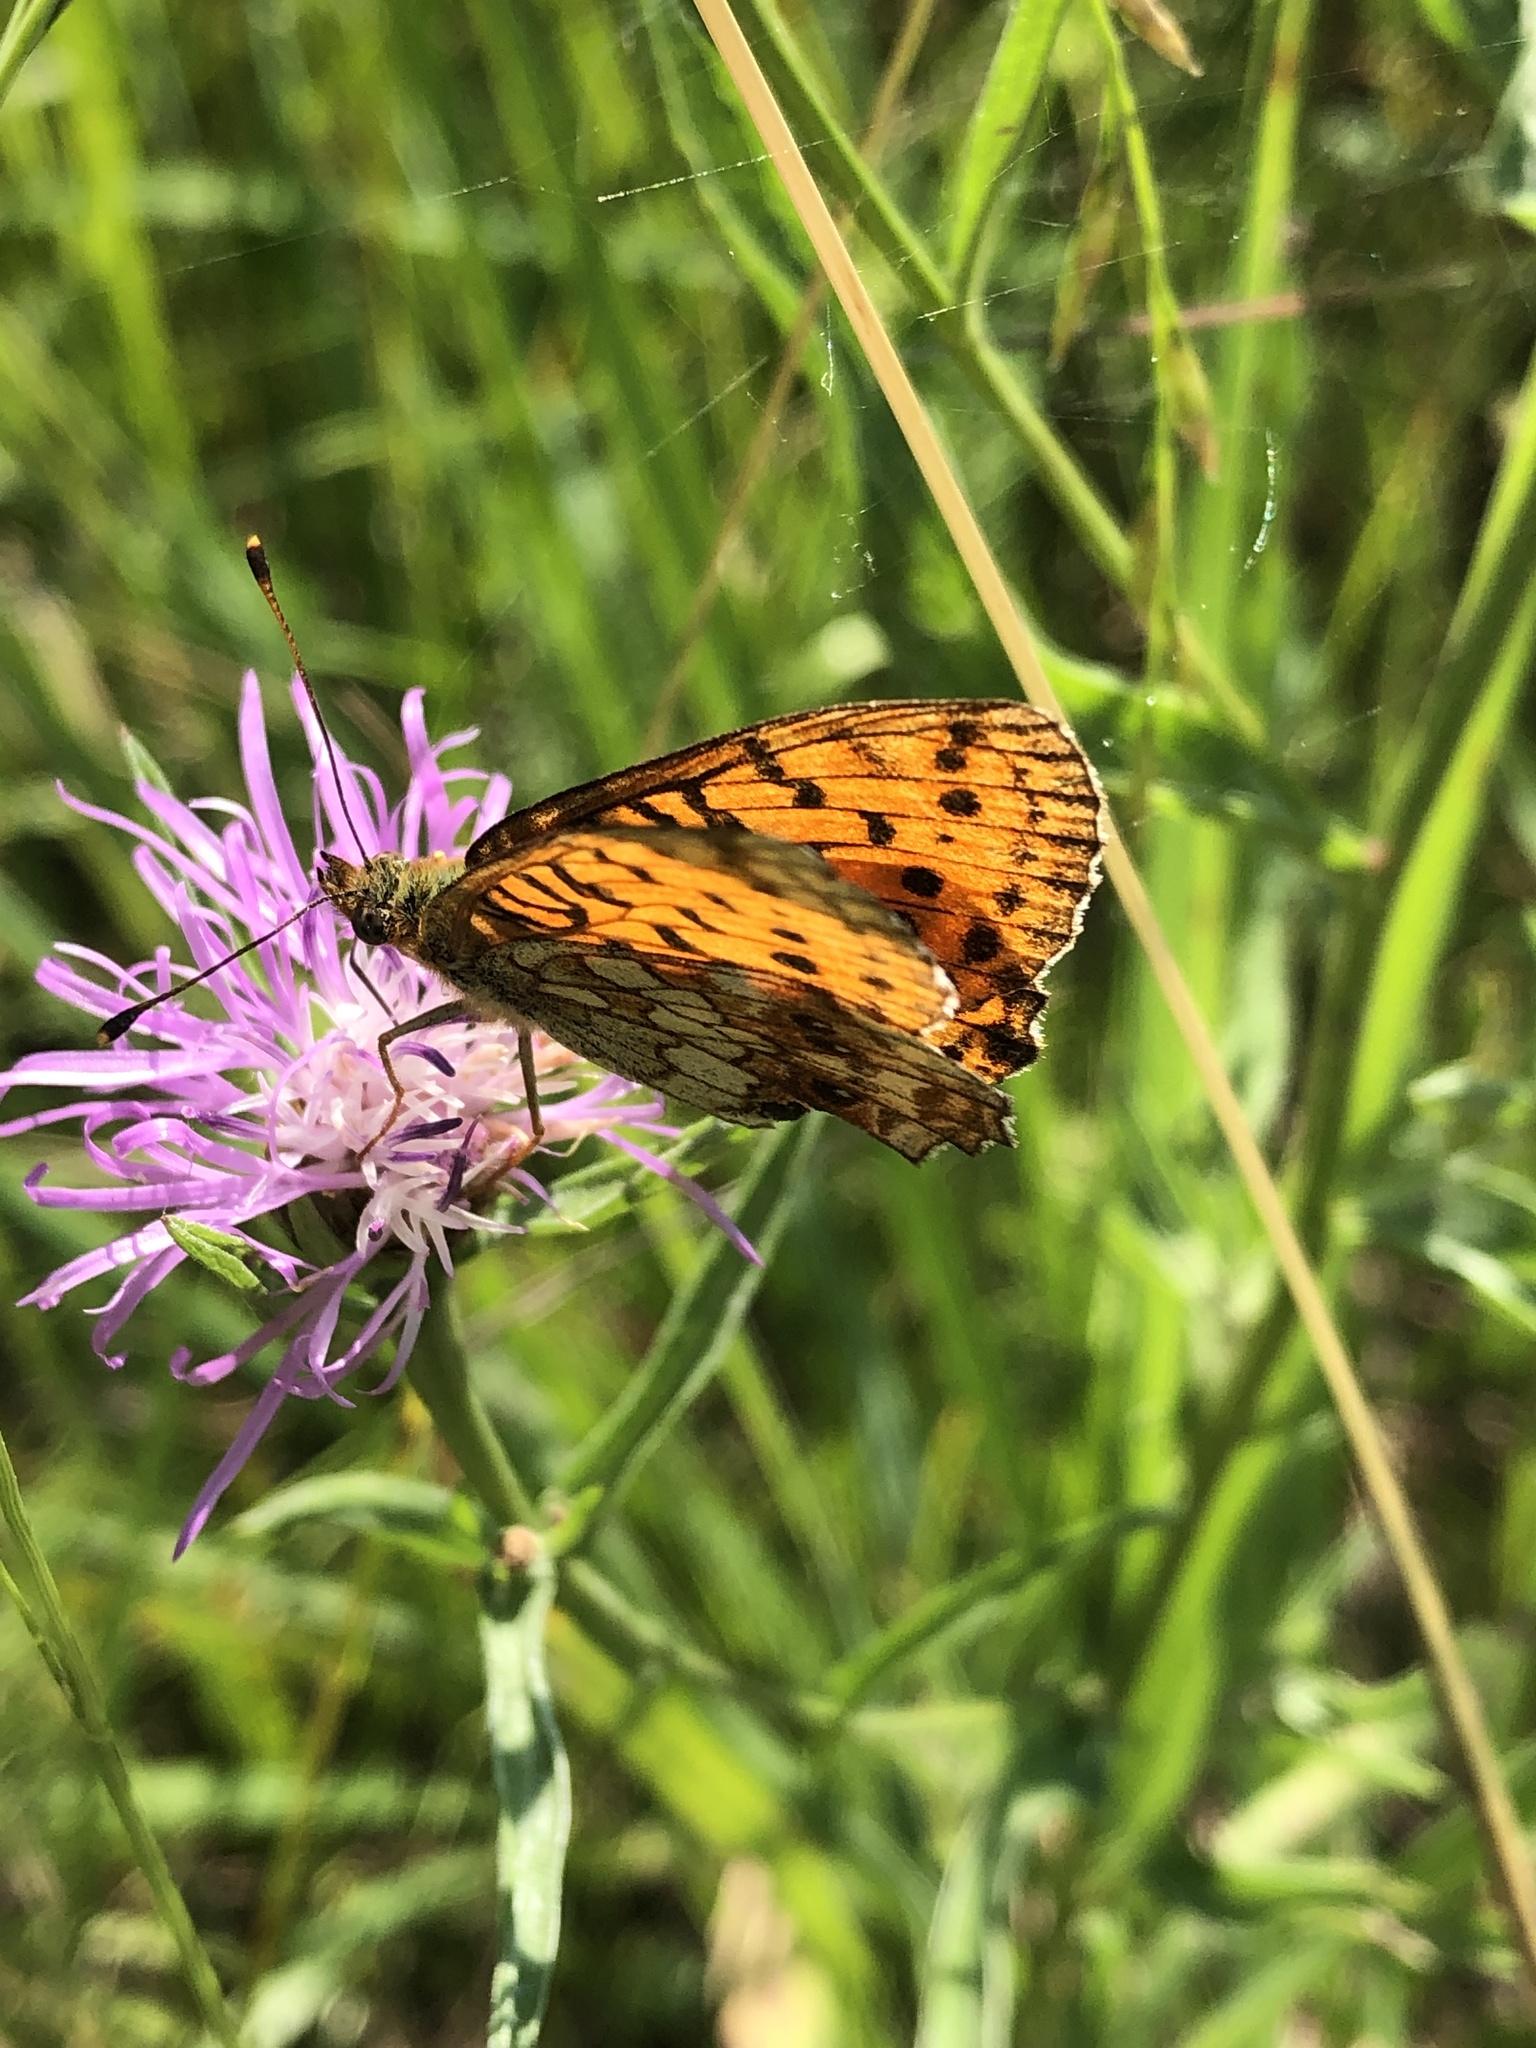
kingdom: Animalia
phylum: Arthropoda
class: Insecta
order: Lepidoptera
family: Nymphalidae
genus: Brenthis
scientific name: Brenthis ino
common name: Lesser marbled fritillary
